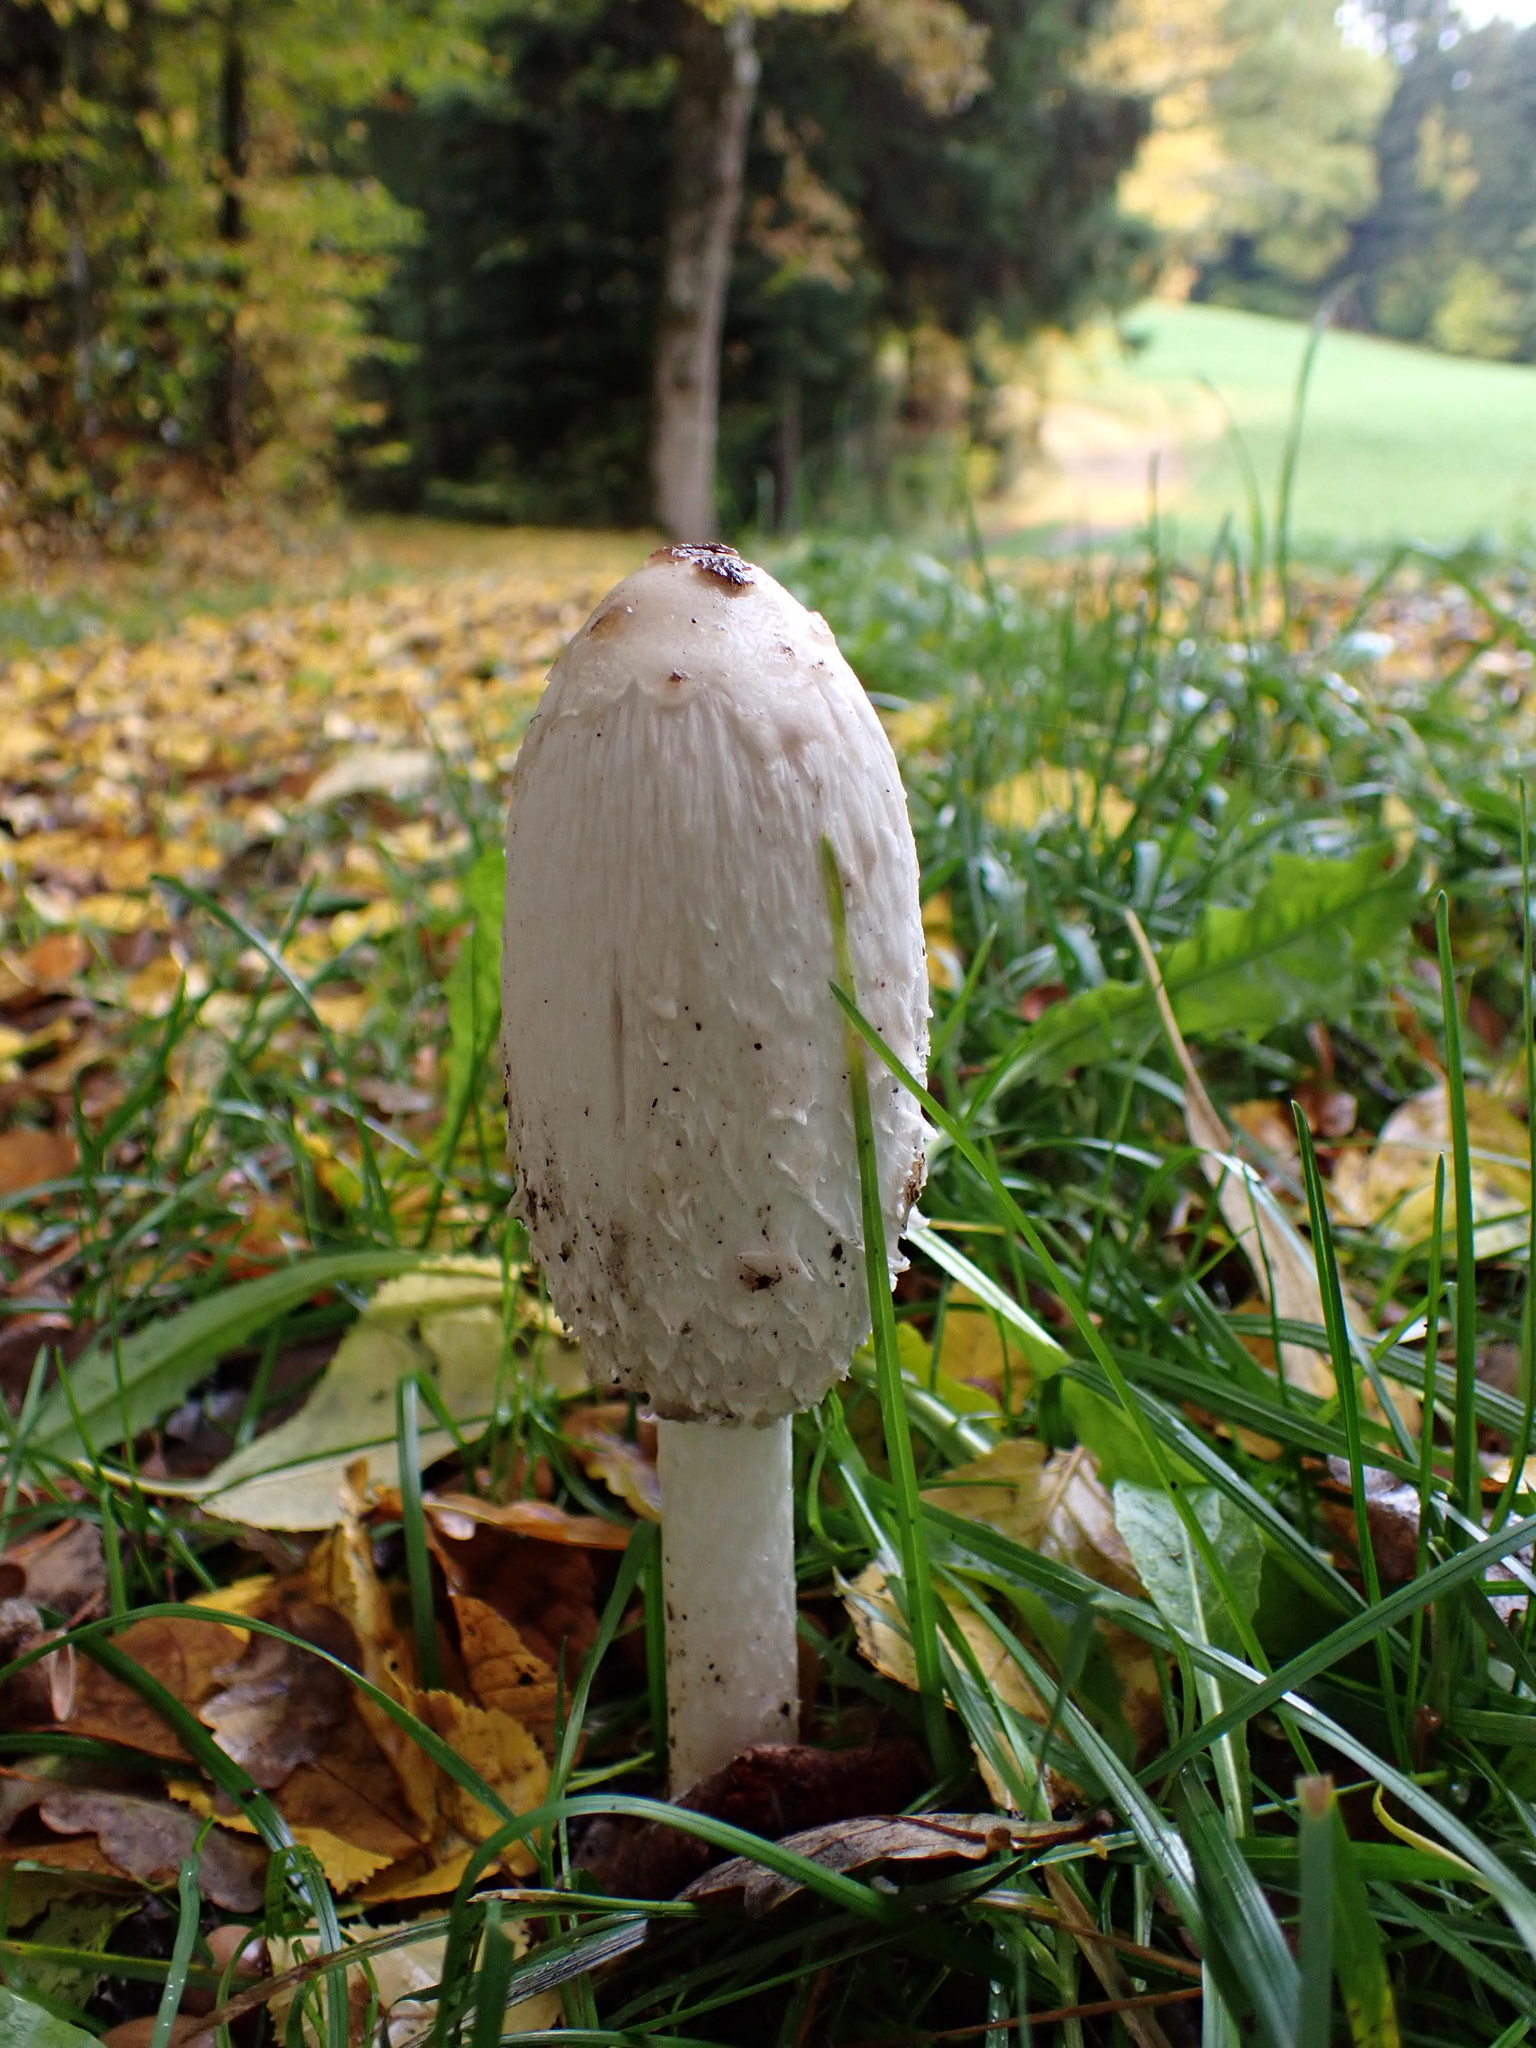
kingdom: Fungi
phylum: Basidiomycota
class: Agaricomycetes
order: Agaricales
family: Agaricaceae
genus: Coprinus
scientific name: Coprinus comatus
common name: Lawyer's wig
